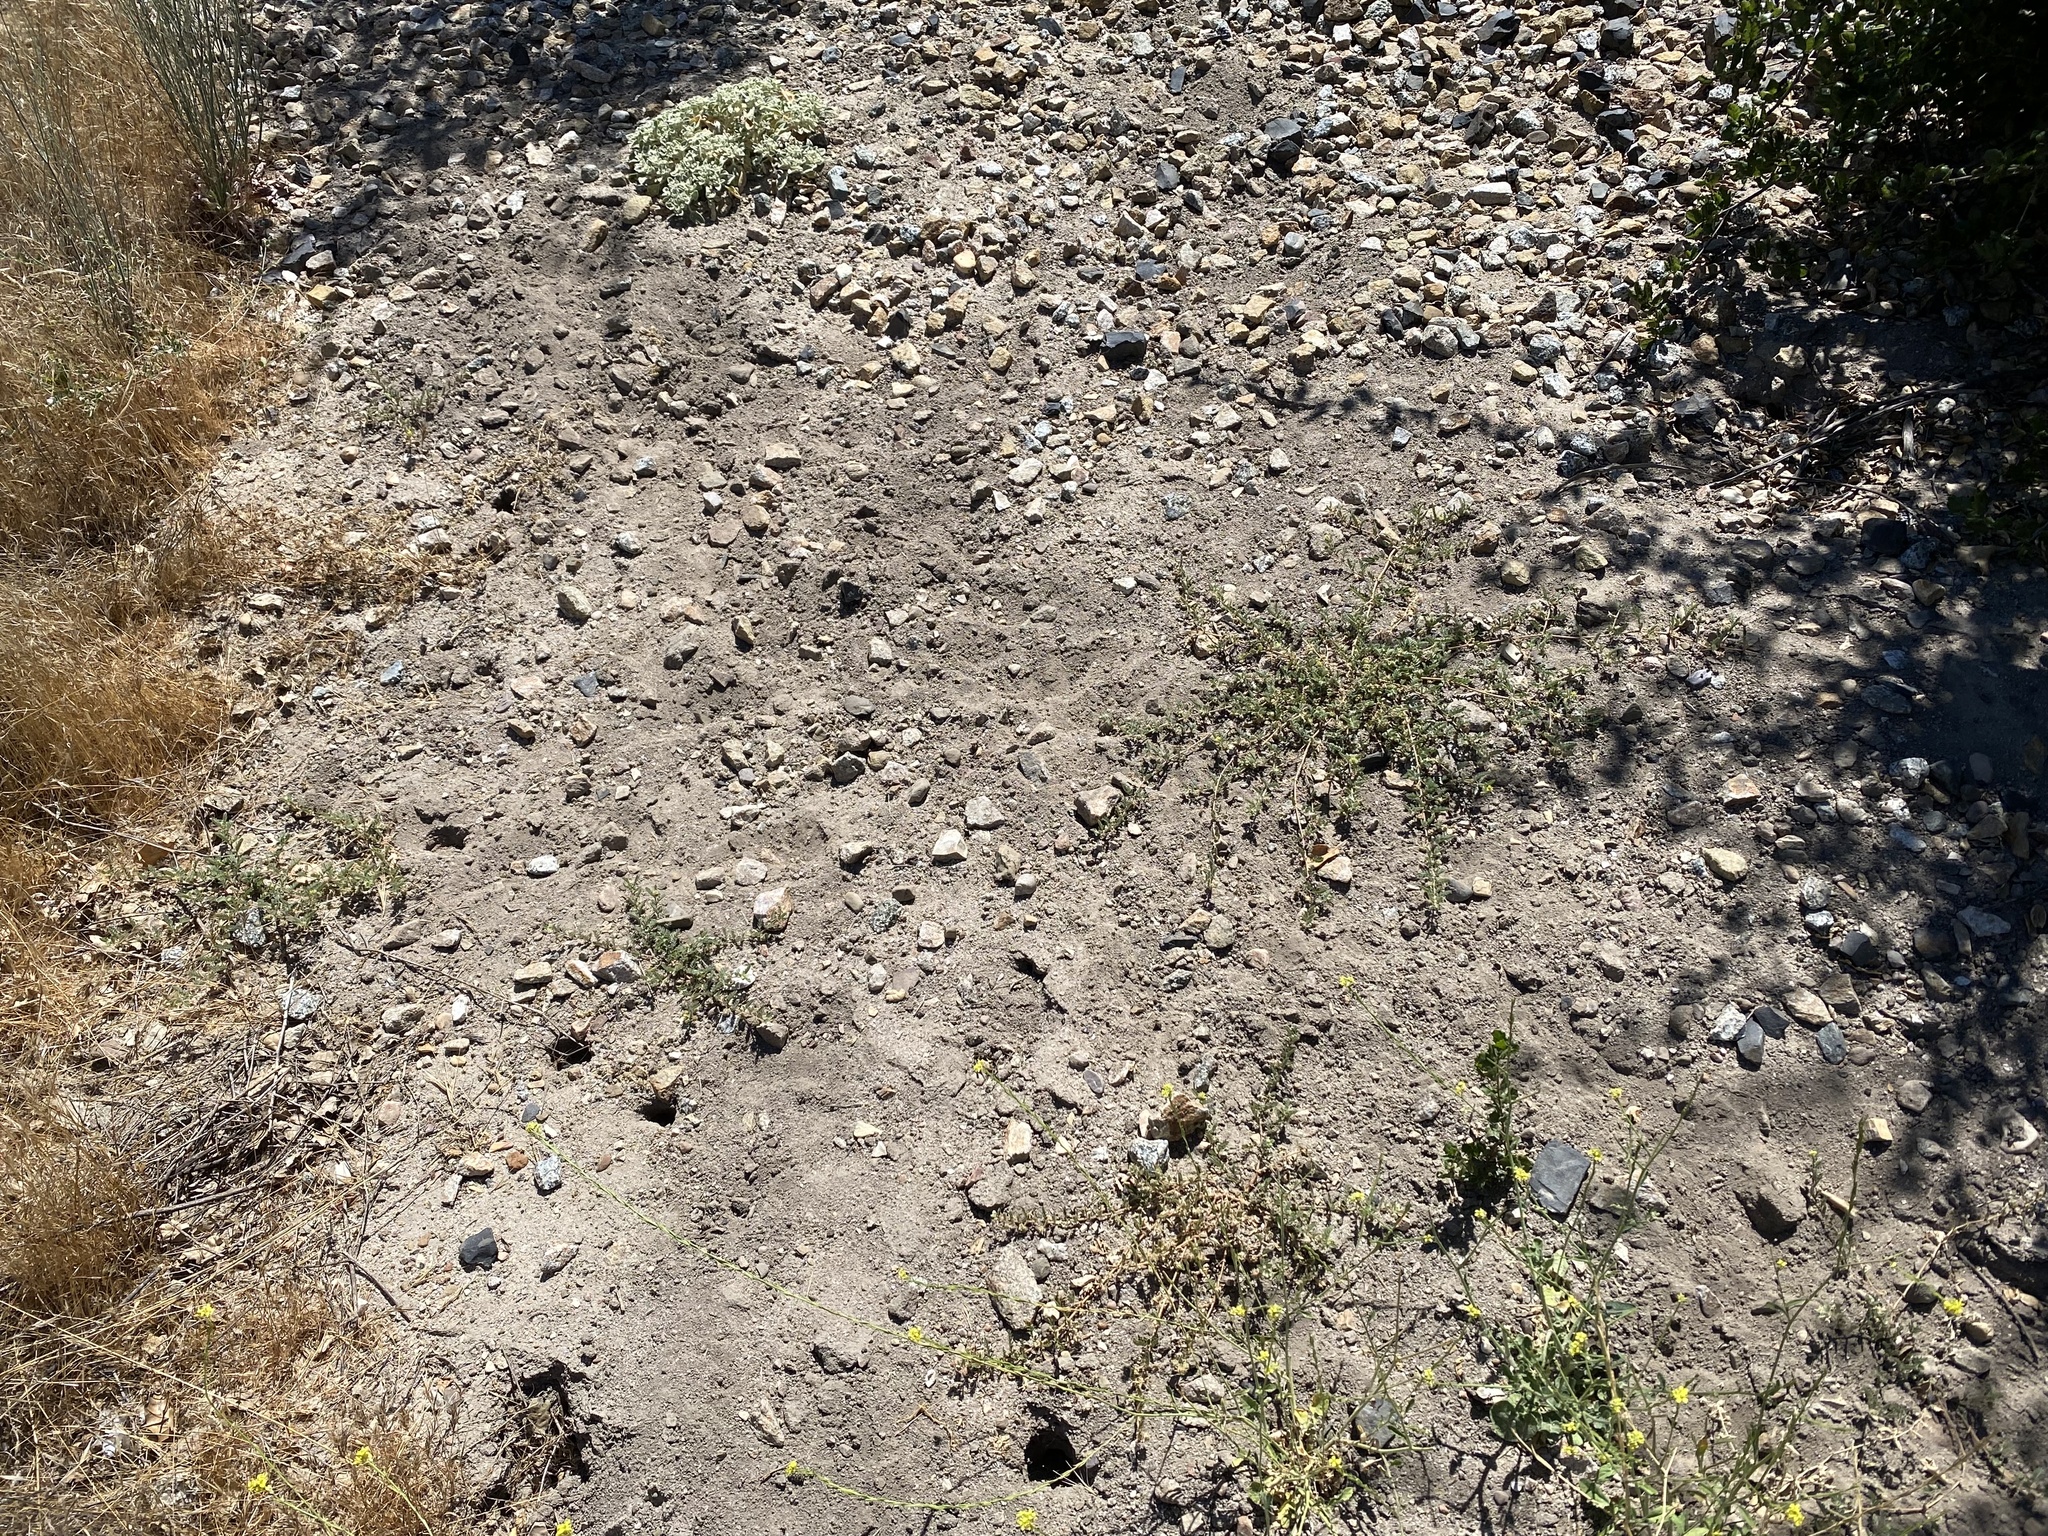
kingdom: Plantae
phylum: Tracheophyta
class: Magnoliopsida
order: Zygophyllales
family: Zygophyllaceae
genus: Tribulus
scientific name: Tribulus terrestris
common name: Puncturevine
